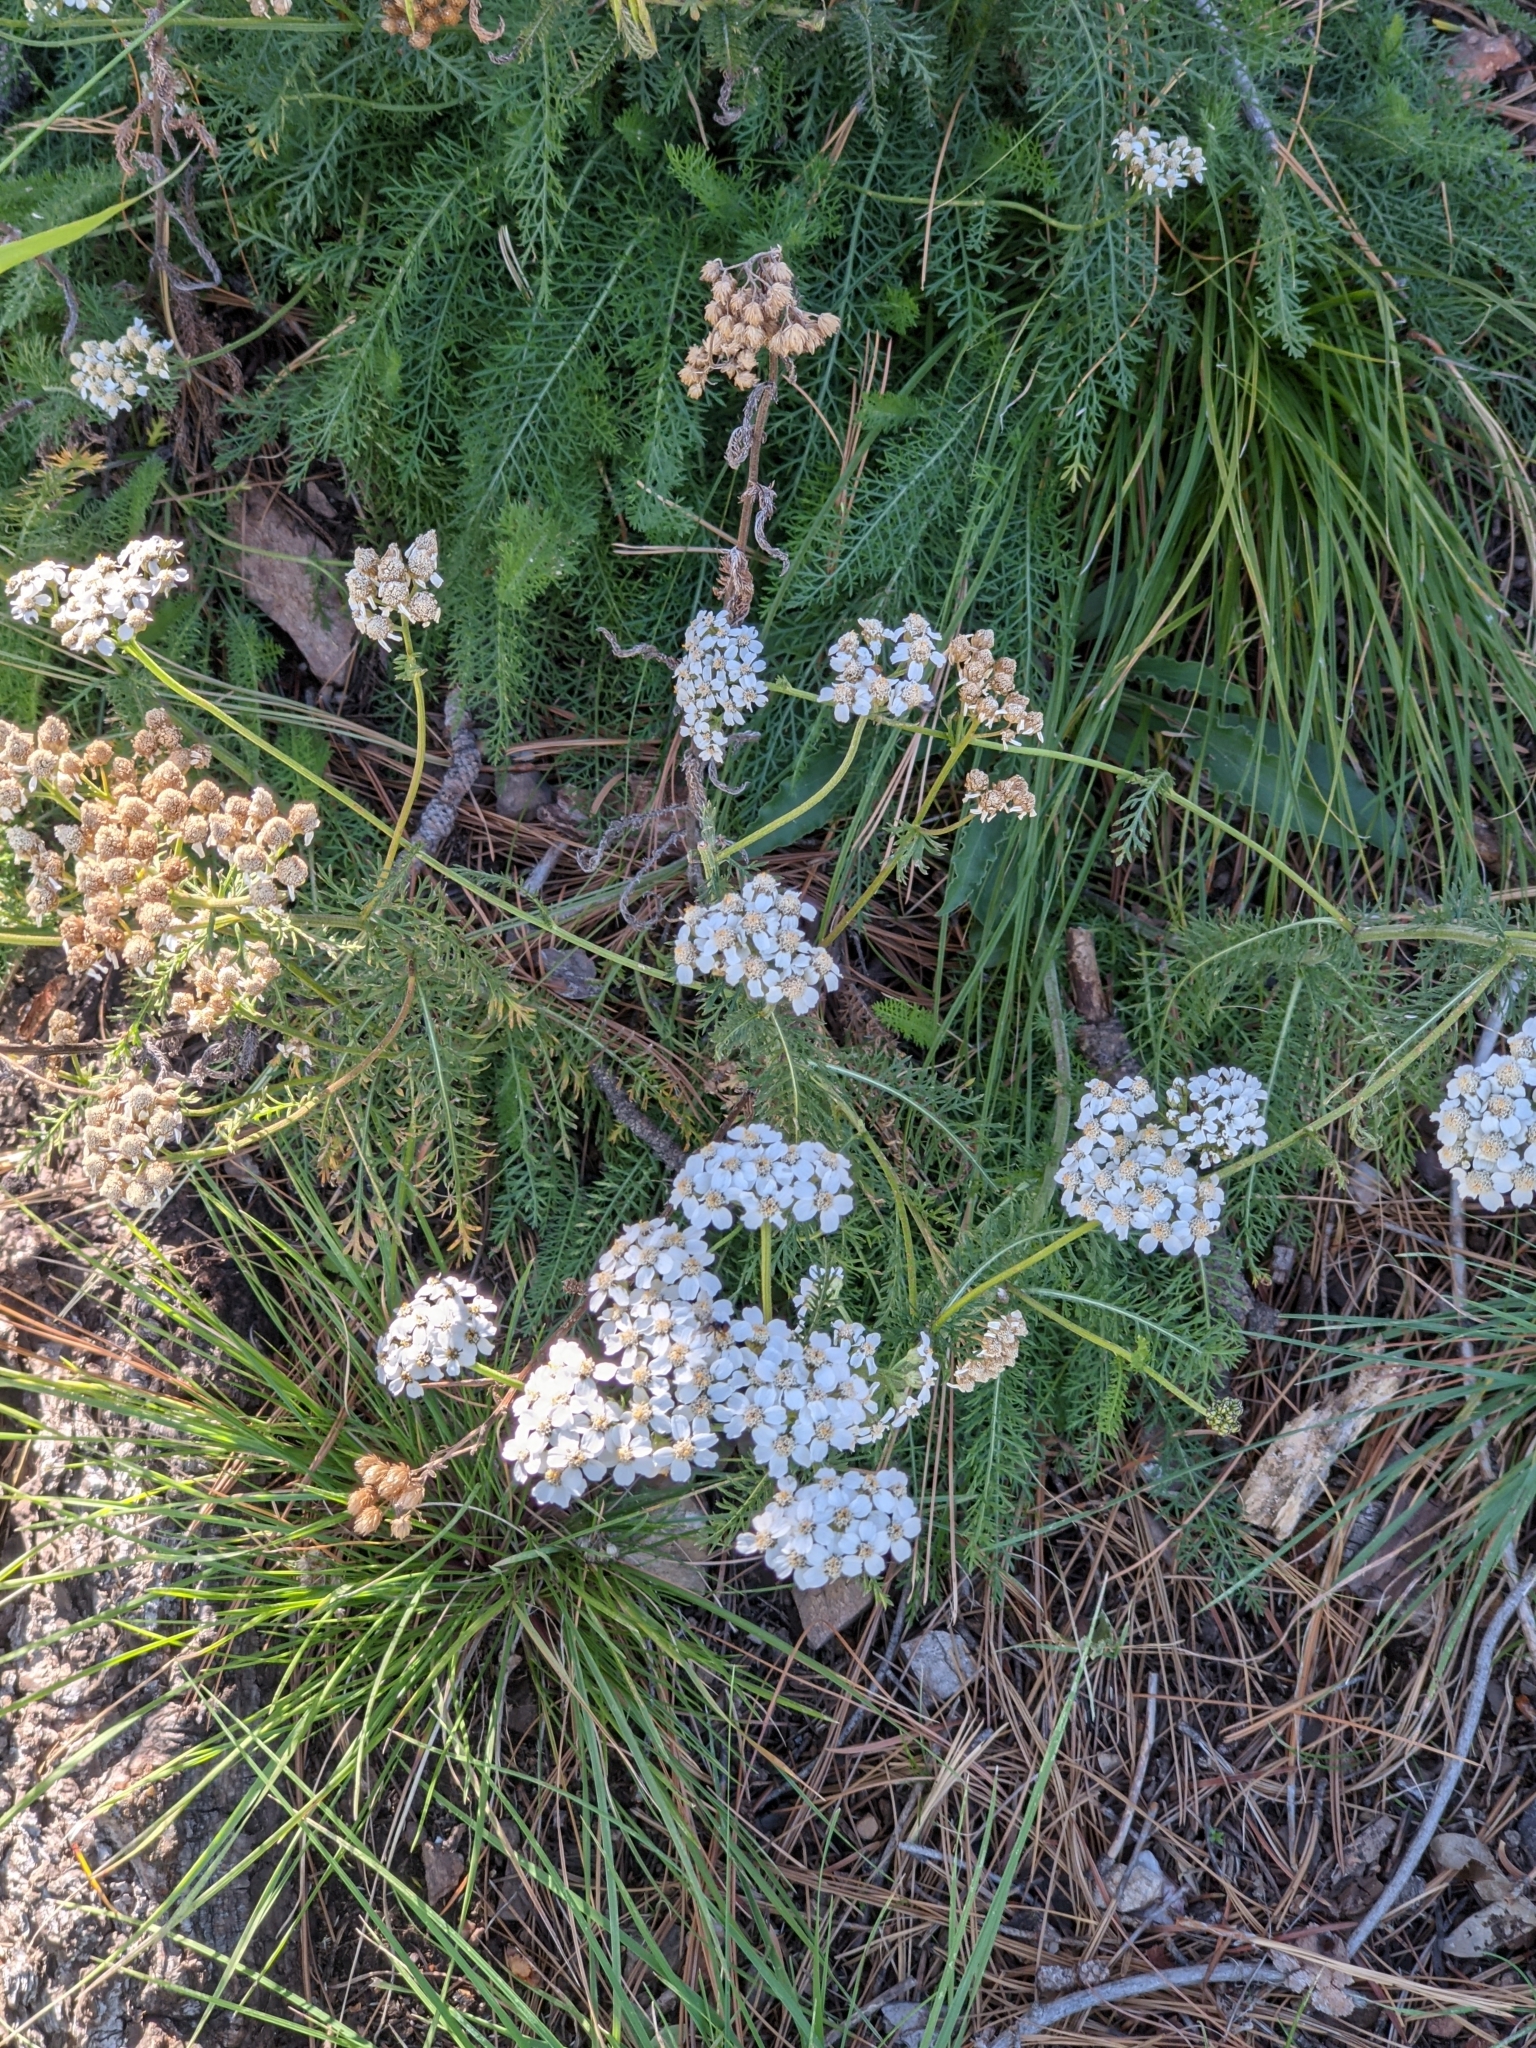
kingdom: Plantae
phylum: Tracheophyta
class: Magnoliopsida
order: Asterales
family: Asteraceae
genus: Achillea
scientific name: Achillea millefolium
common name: Yarrow
